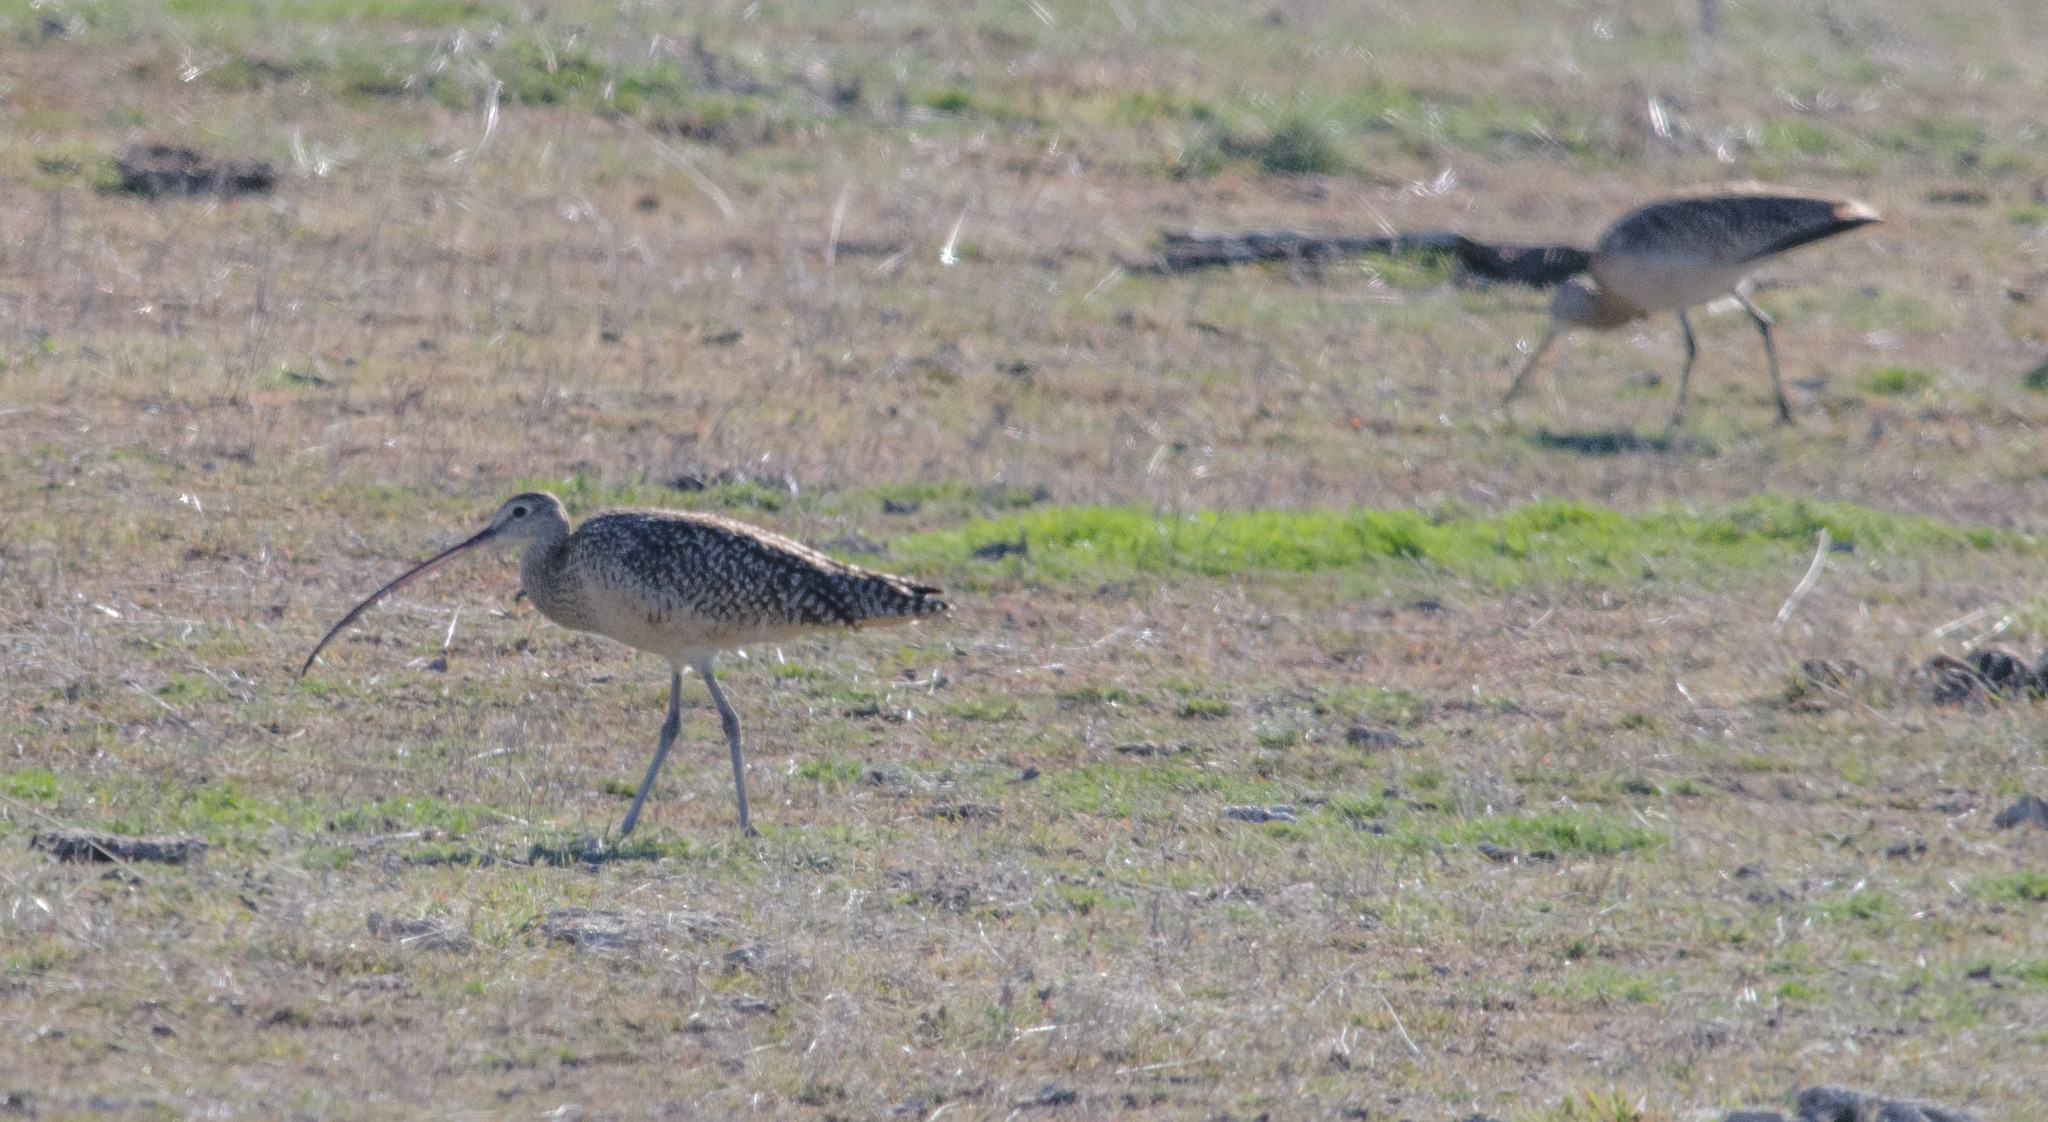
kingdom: Animalia
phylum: Chordata
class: Aves
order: Charadriiformes
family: Scolopacidae
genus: Numenius
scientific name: Numenius americanus
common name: Long-billed curlew
